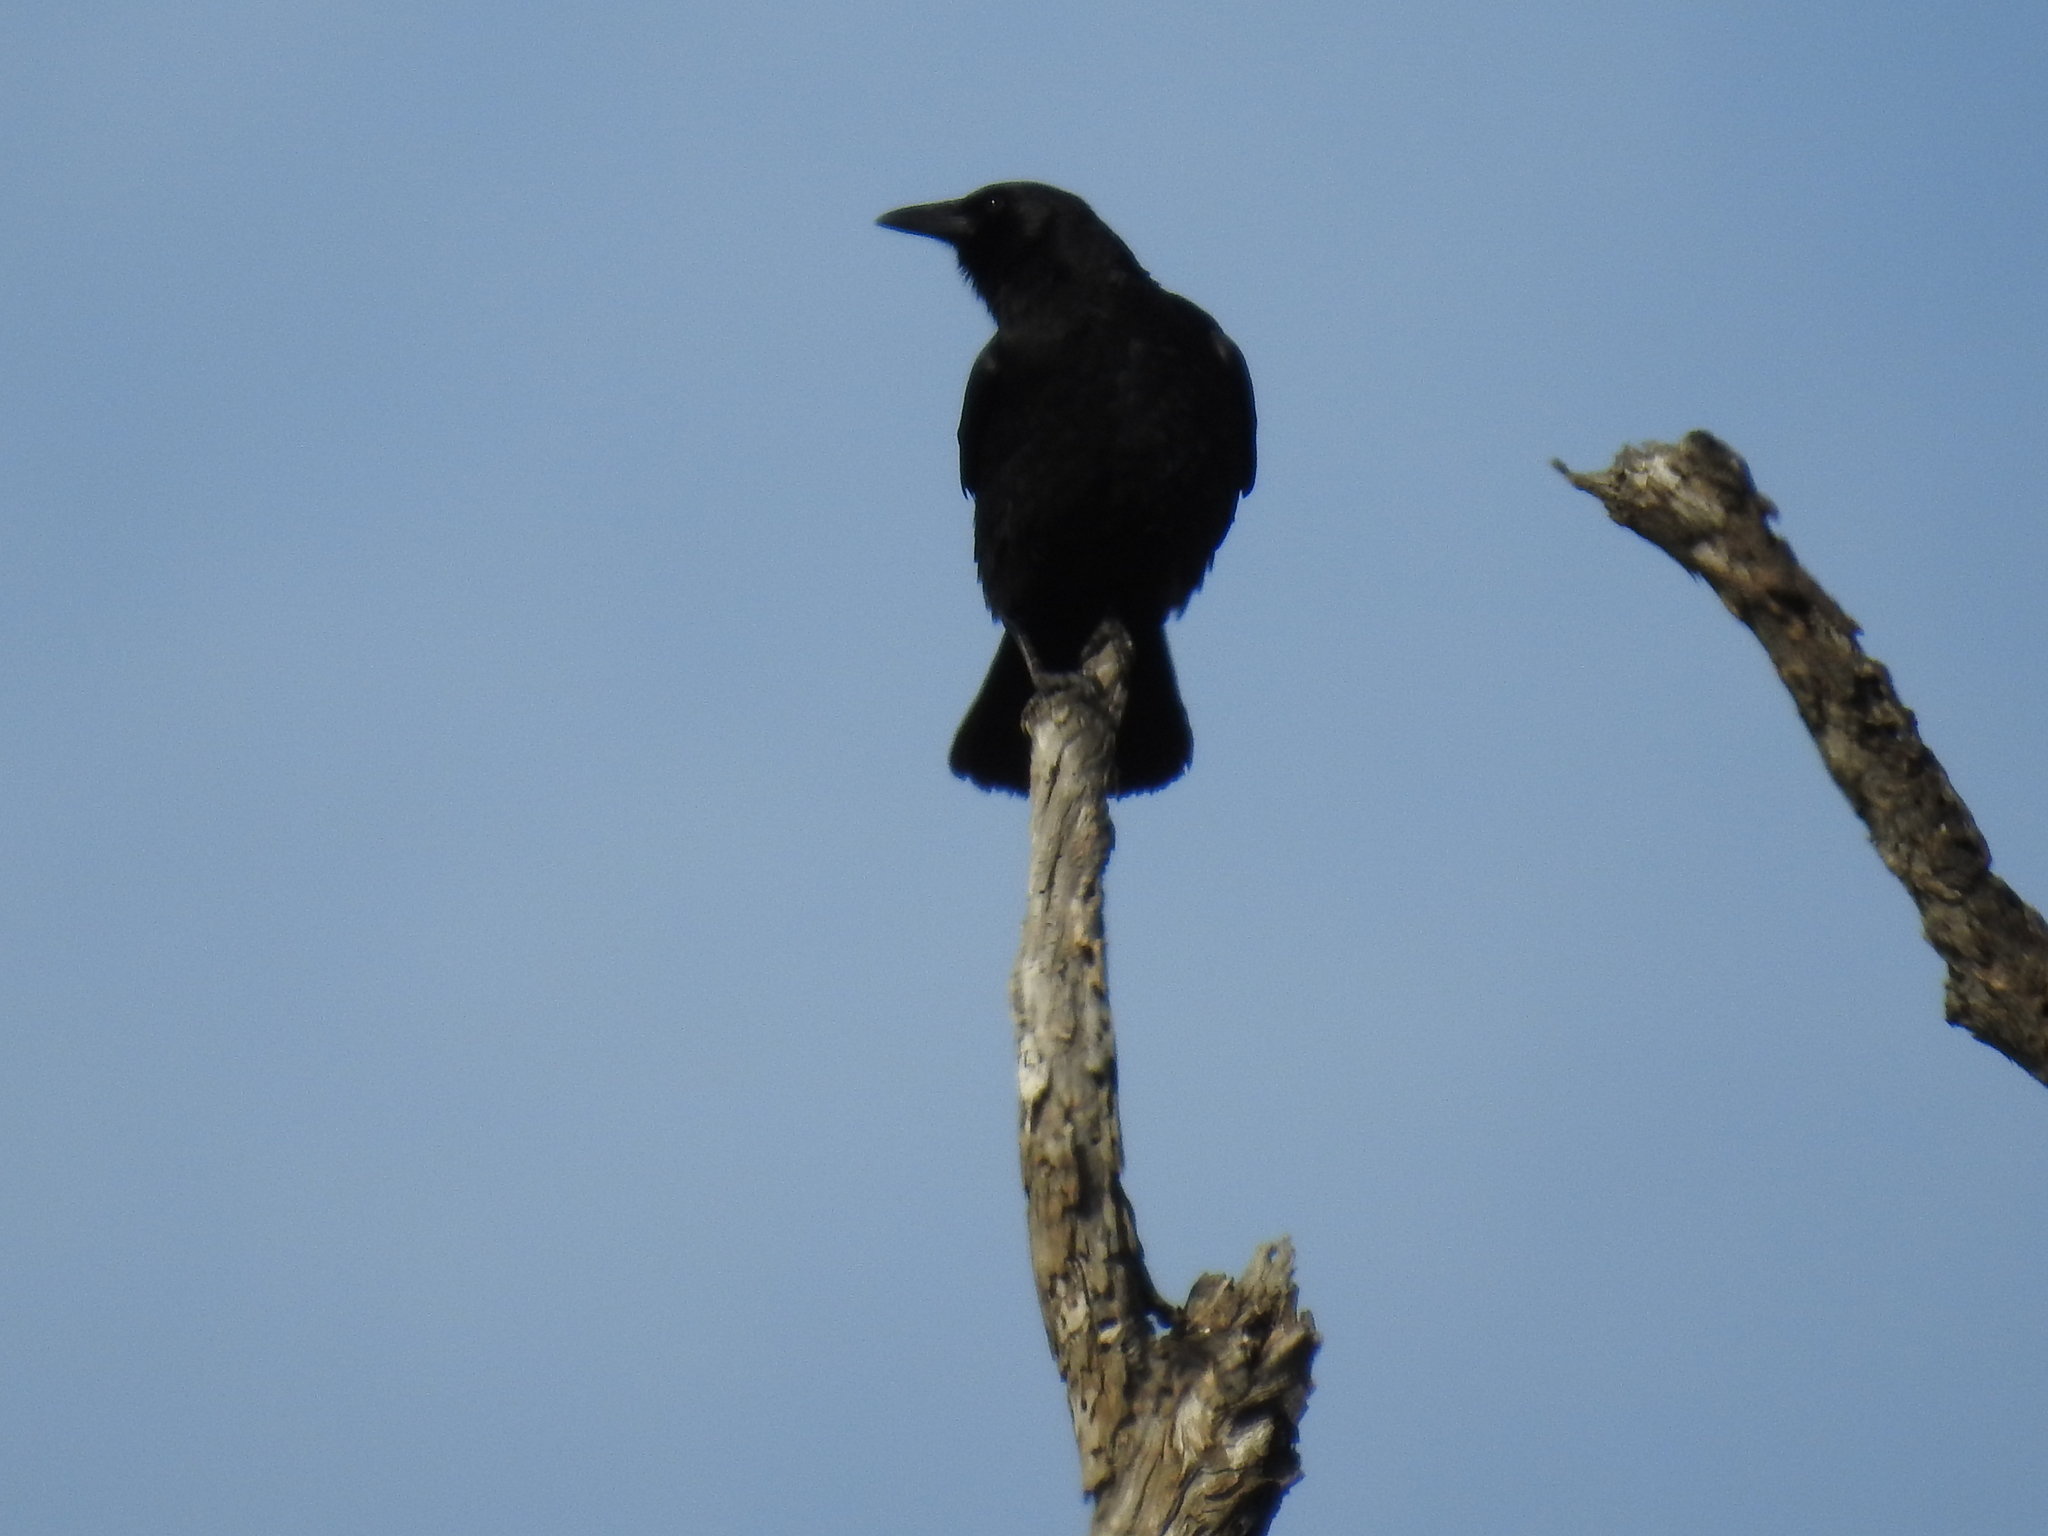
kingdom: Animalia
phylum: Chordata
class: Aves
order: Passeriformes
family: Corvidae
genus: Corvus
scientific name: Corvus brachyrhynchos
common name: American crow
